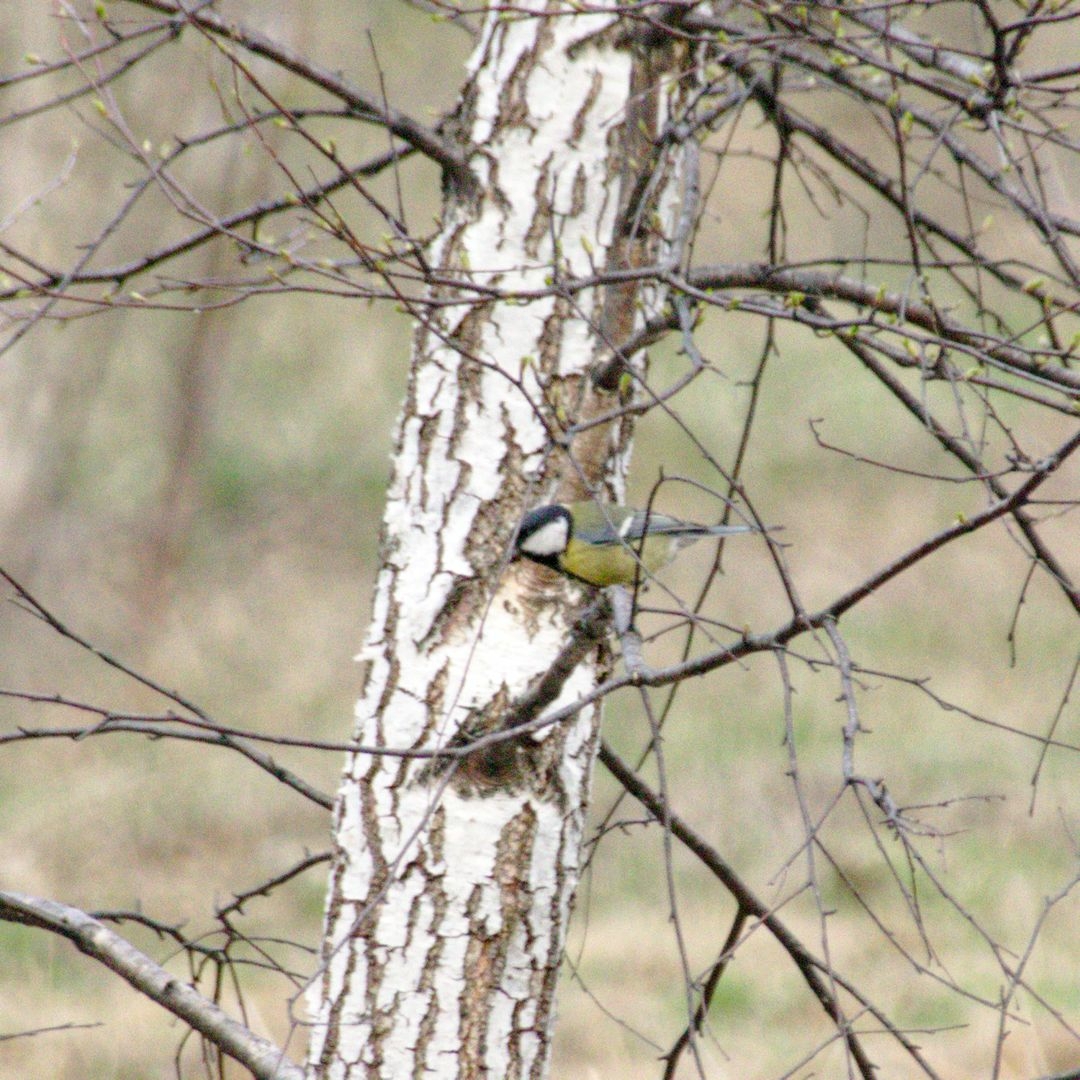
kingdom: Animalia
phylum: Chordata
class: Aves
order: Passeriformes
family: Paridae
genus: Parus
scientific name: Parus major
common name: Great tit
